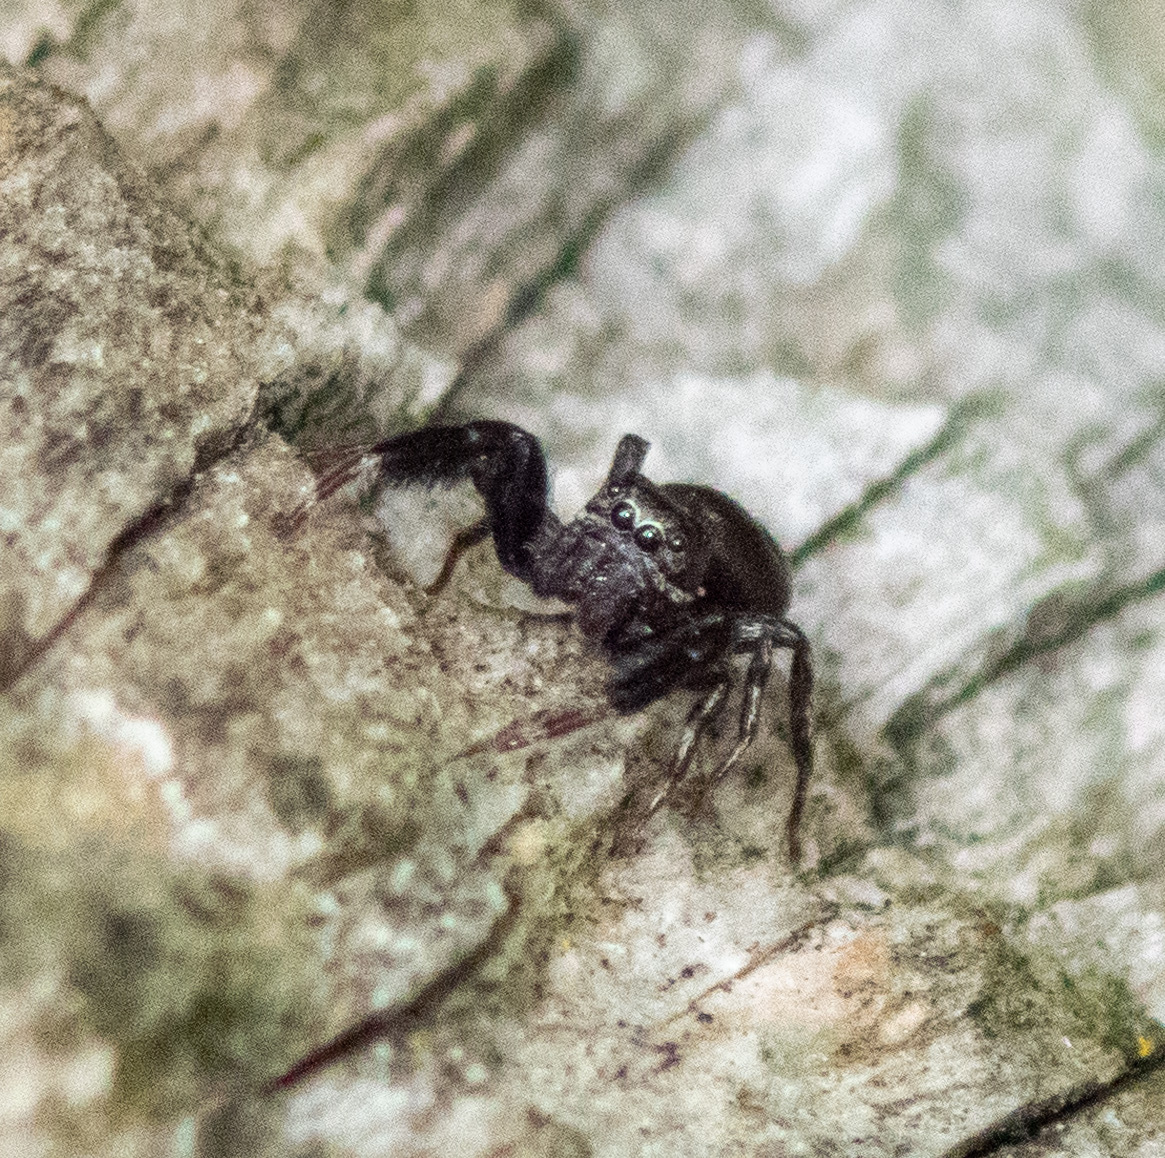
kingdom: Animalia
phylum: Arthropoda
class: Arachnida
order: Araneae
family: Salticidae
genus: Tutelina
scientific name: Tutelina harti
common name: Hart's jumping spider
